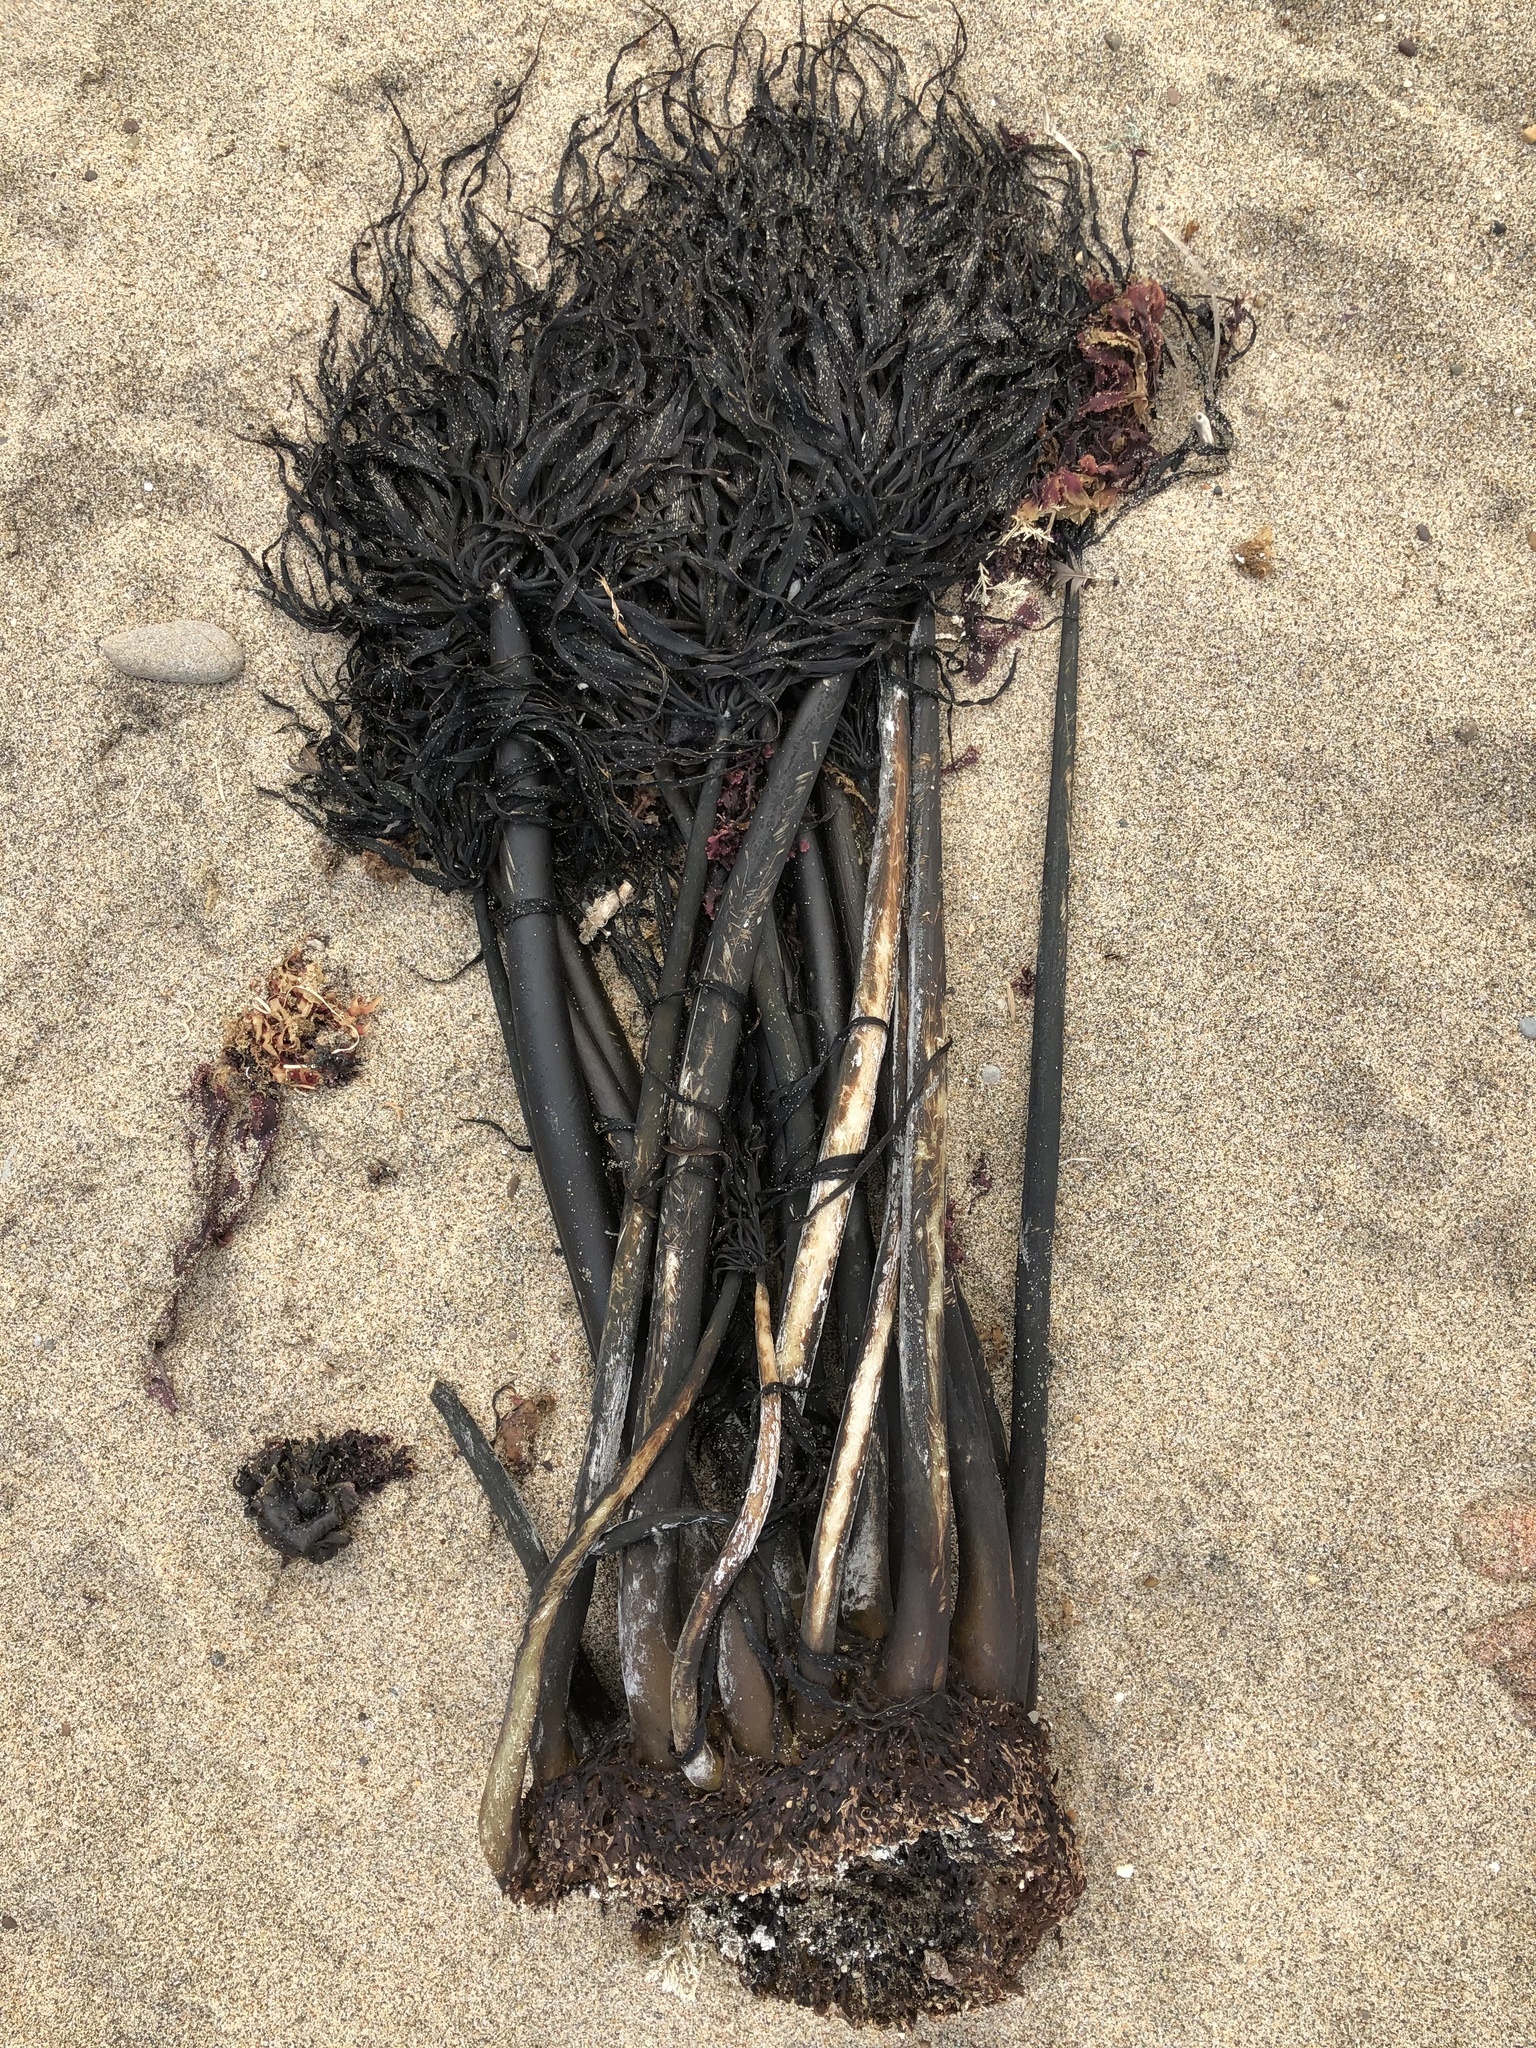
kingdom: Chromista
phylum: Ochrophyta
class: Phaeophyceae
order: Laminariales
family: Laminariaceae
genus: Postelsia
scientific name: Postelsia palmiformis
